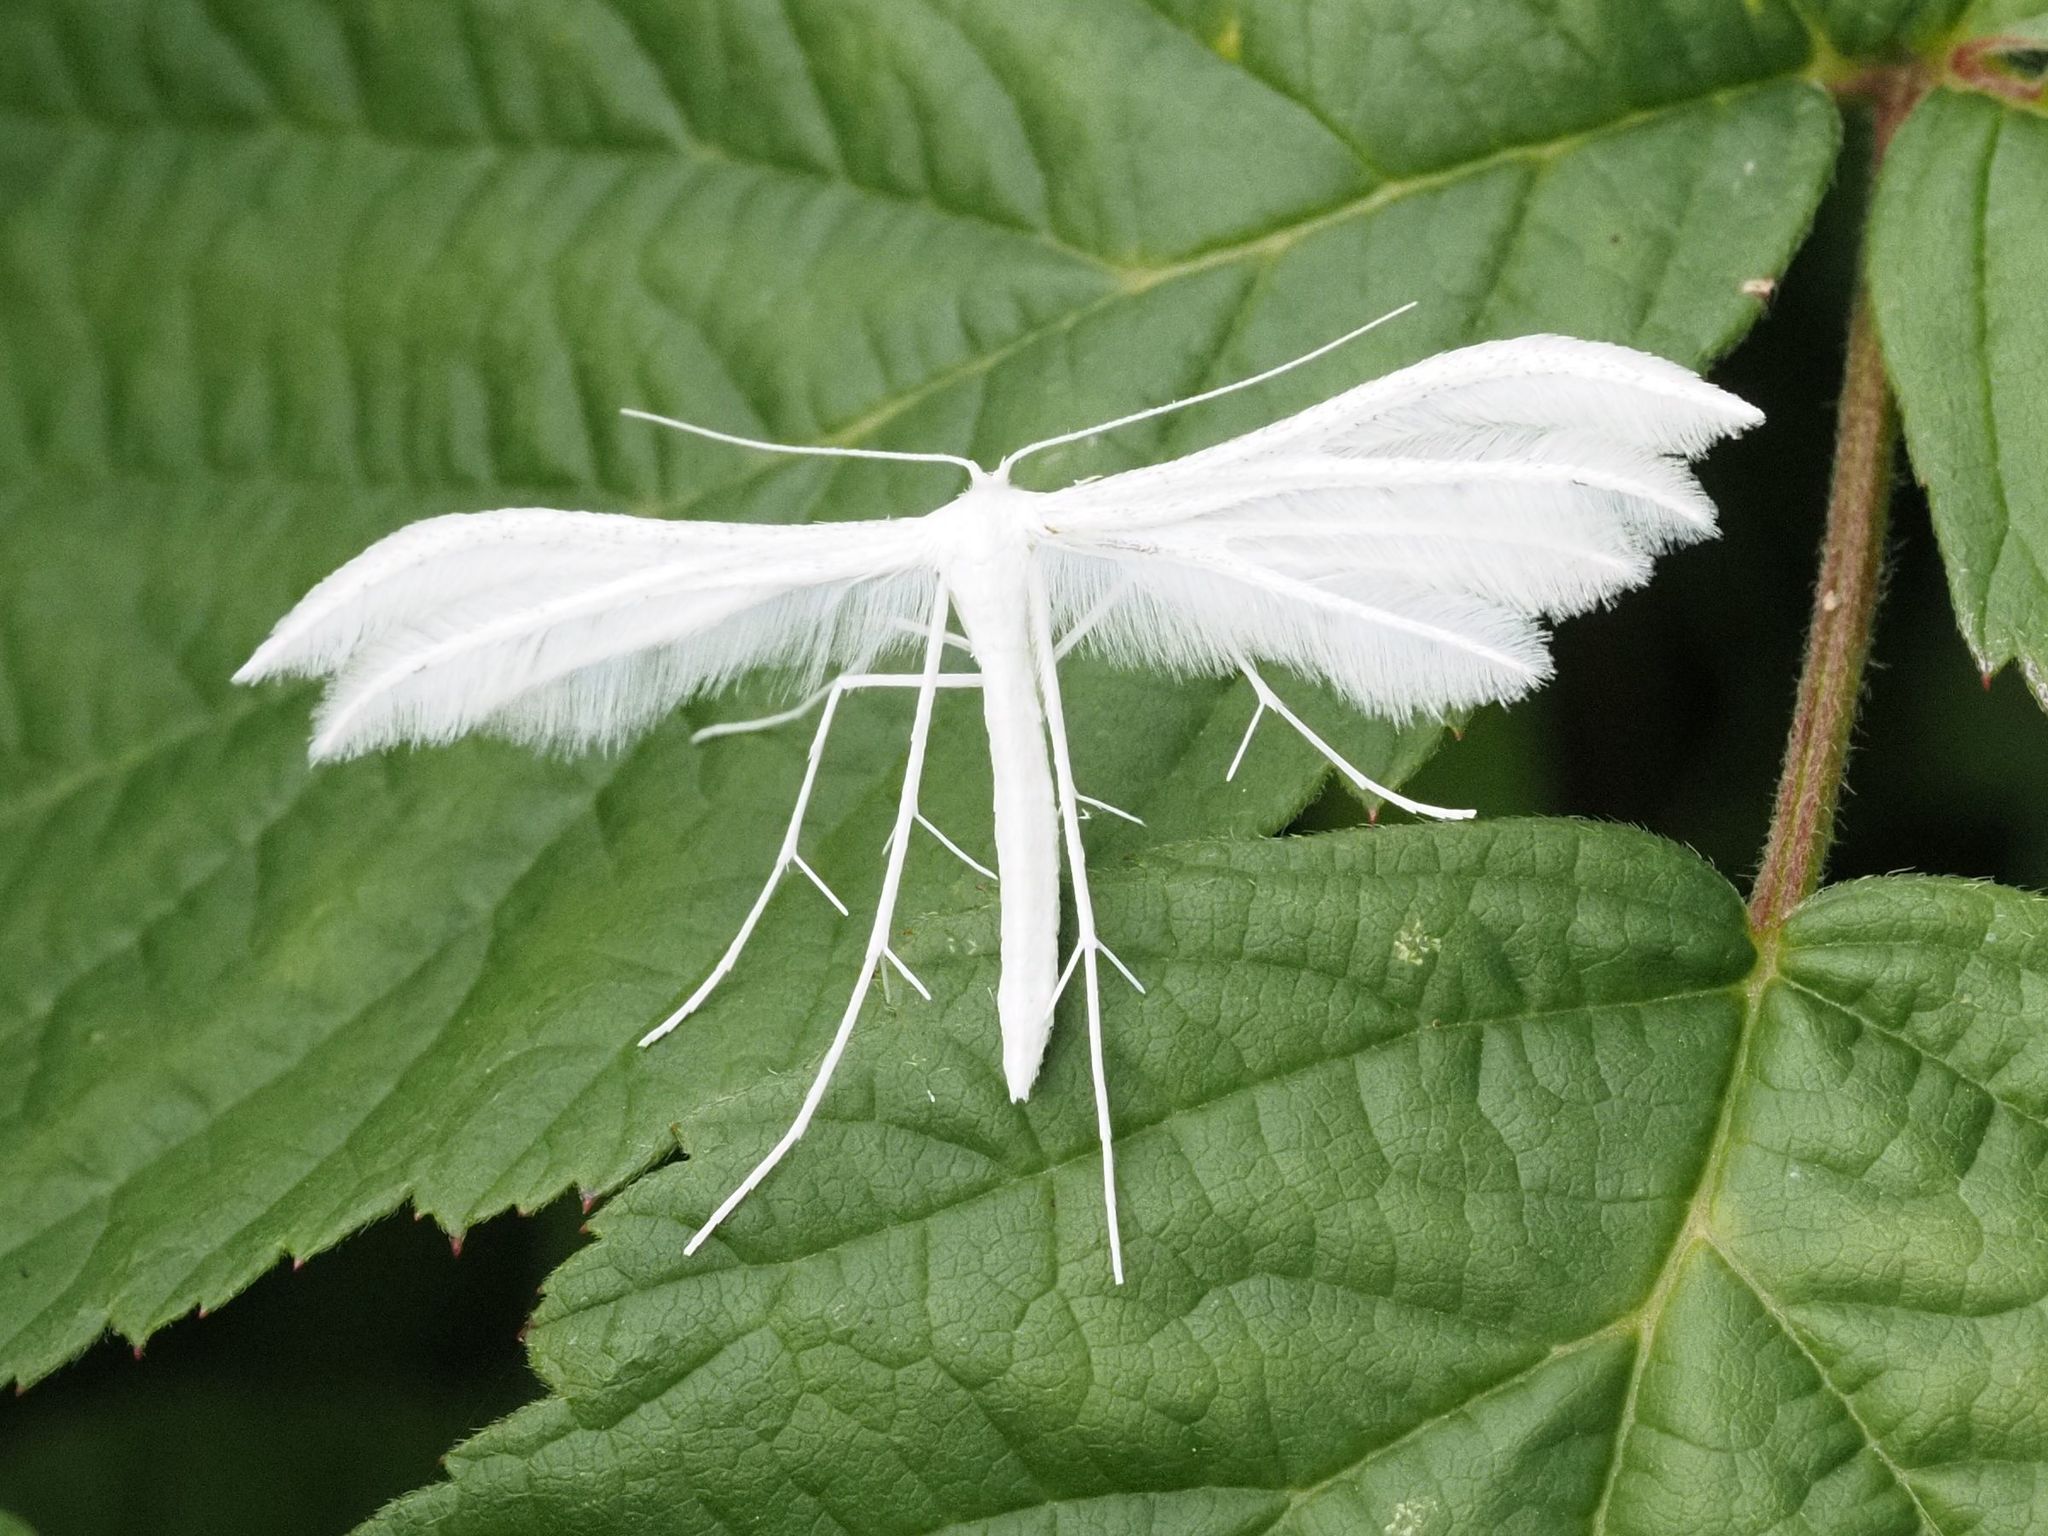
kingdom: Animalia
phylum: Arthropoda
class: Insecta
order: Lepidoptera
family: Pterophoridae
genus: Pterophorus
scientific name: Pterophorus pentadactyla
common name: White plume moth
